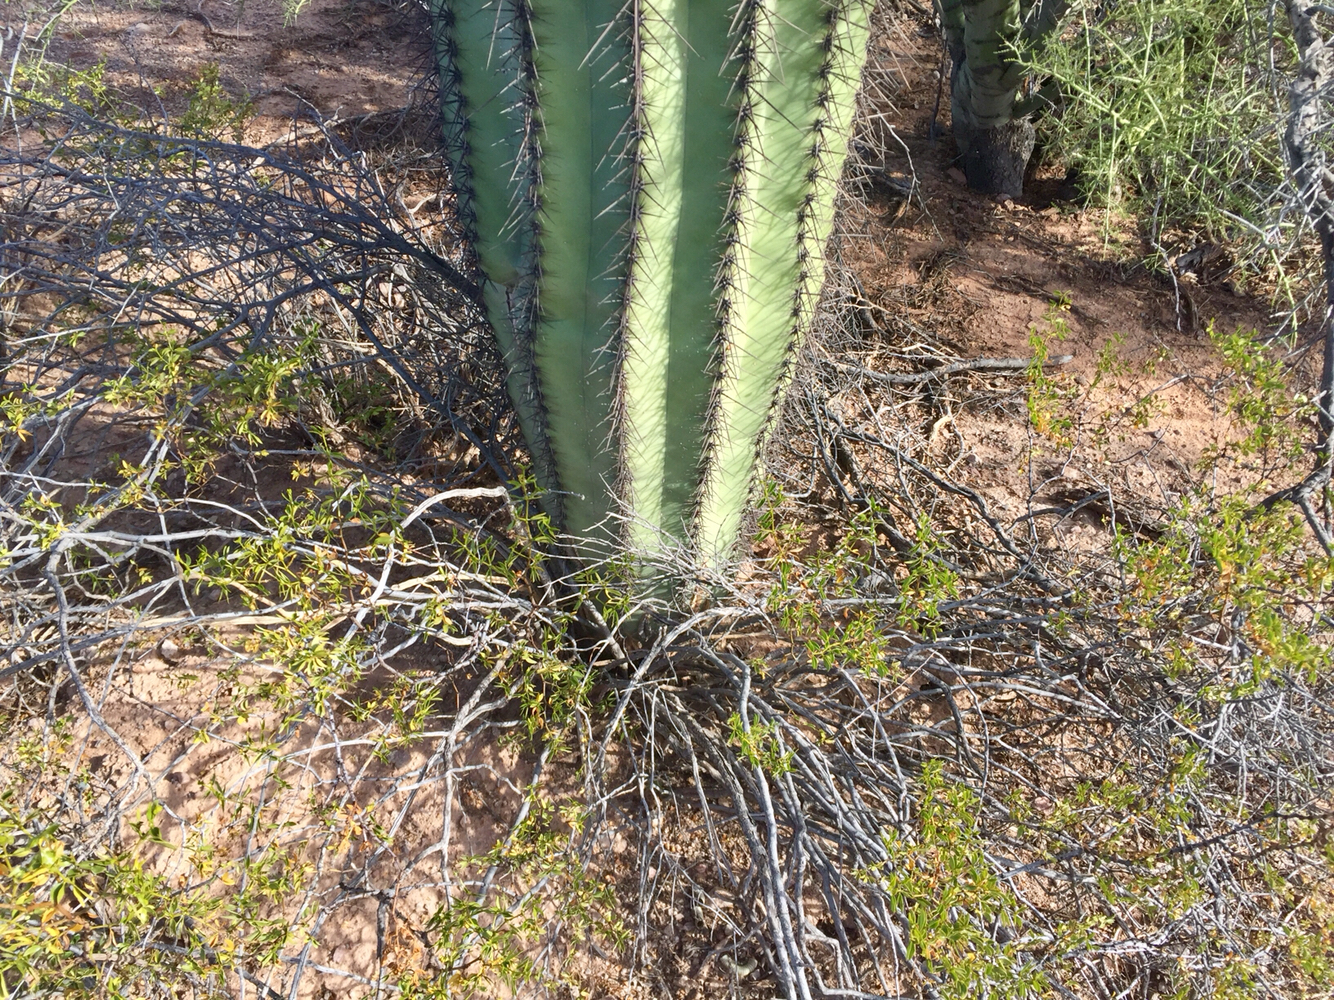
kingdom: Plantae
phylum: Tracheophyta
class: Magnoliopsida
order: Caryophyllales
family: Cactaceae
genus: Carnegiea
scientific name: Carnegiea gigantea
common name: Saguaro
